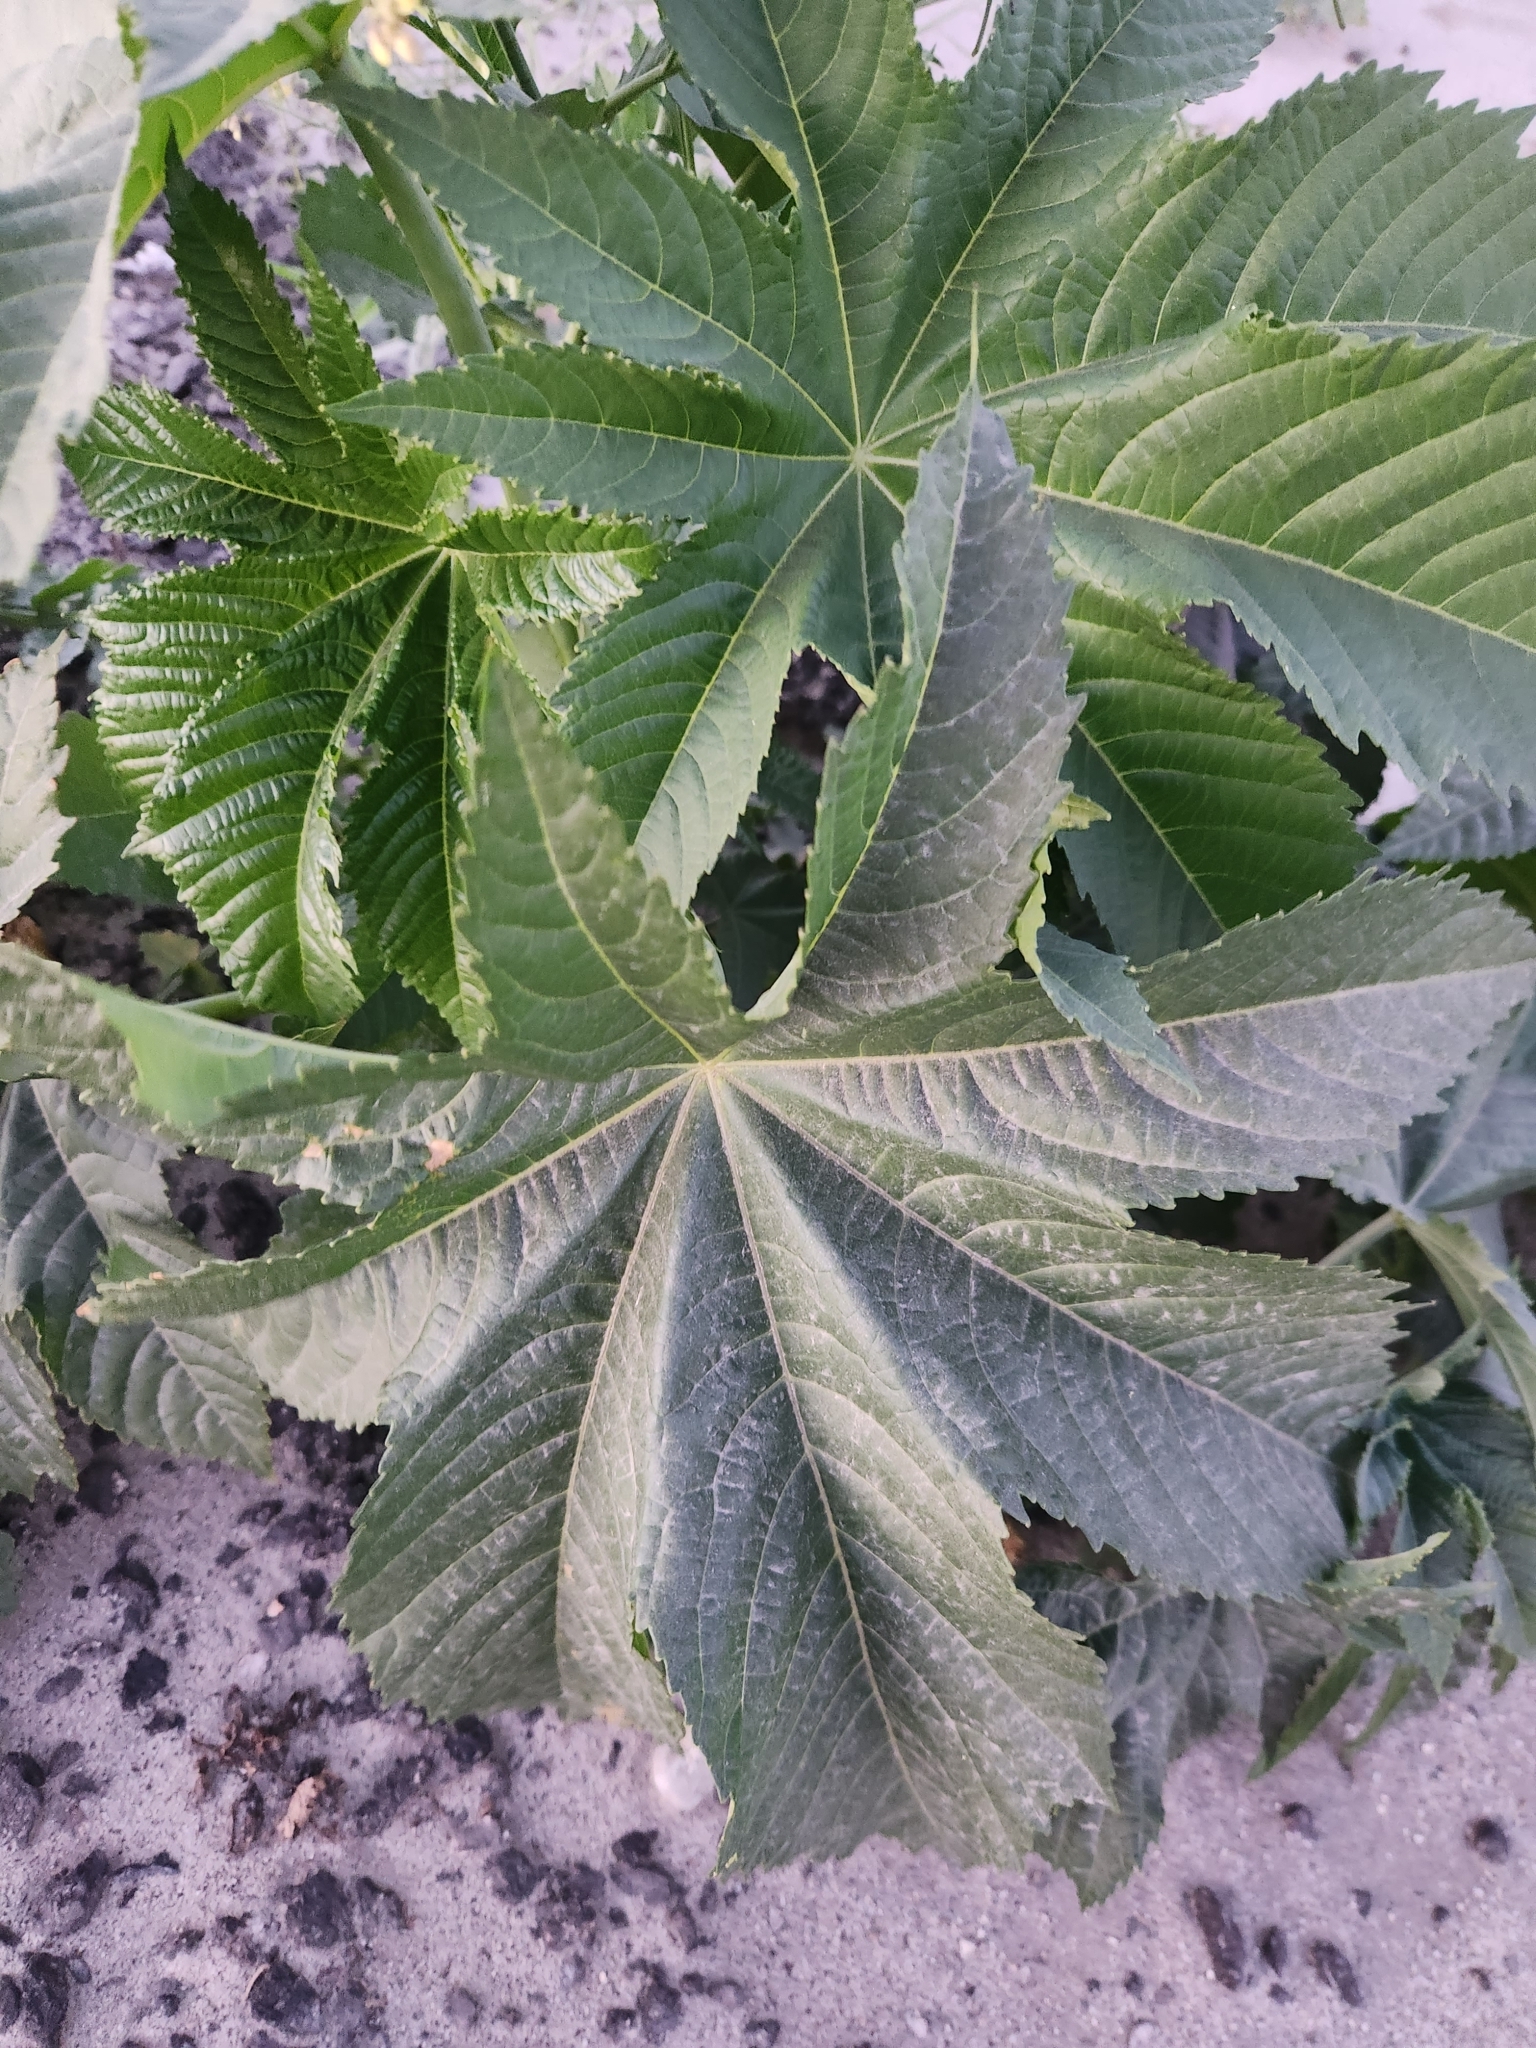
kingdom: Plantae
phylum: Tracheophyta
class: Magnoliopsida
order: Malpighiales
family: Euphorbiaceae
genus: Ricinus
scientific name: Ricinus communis
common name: Castor-oil-plant
